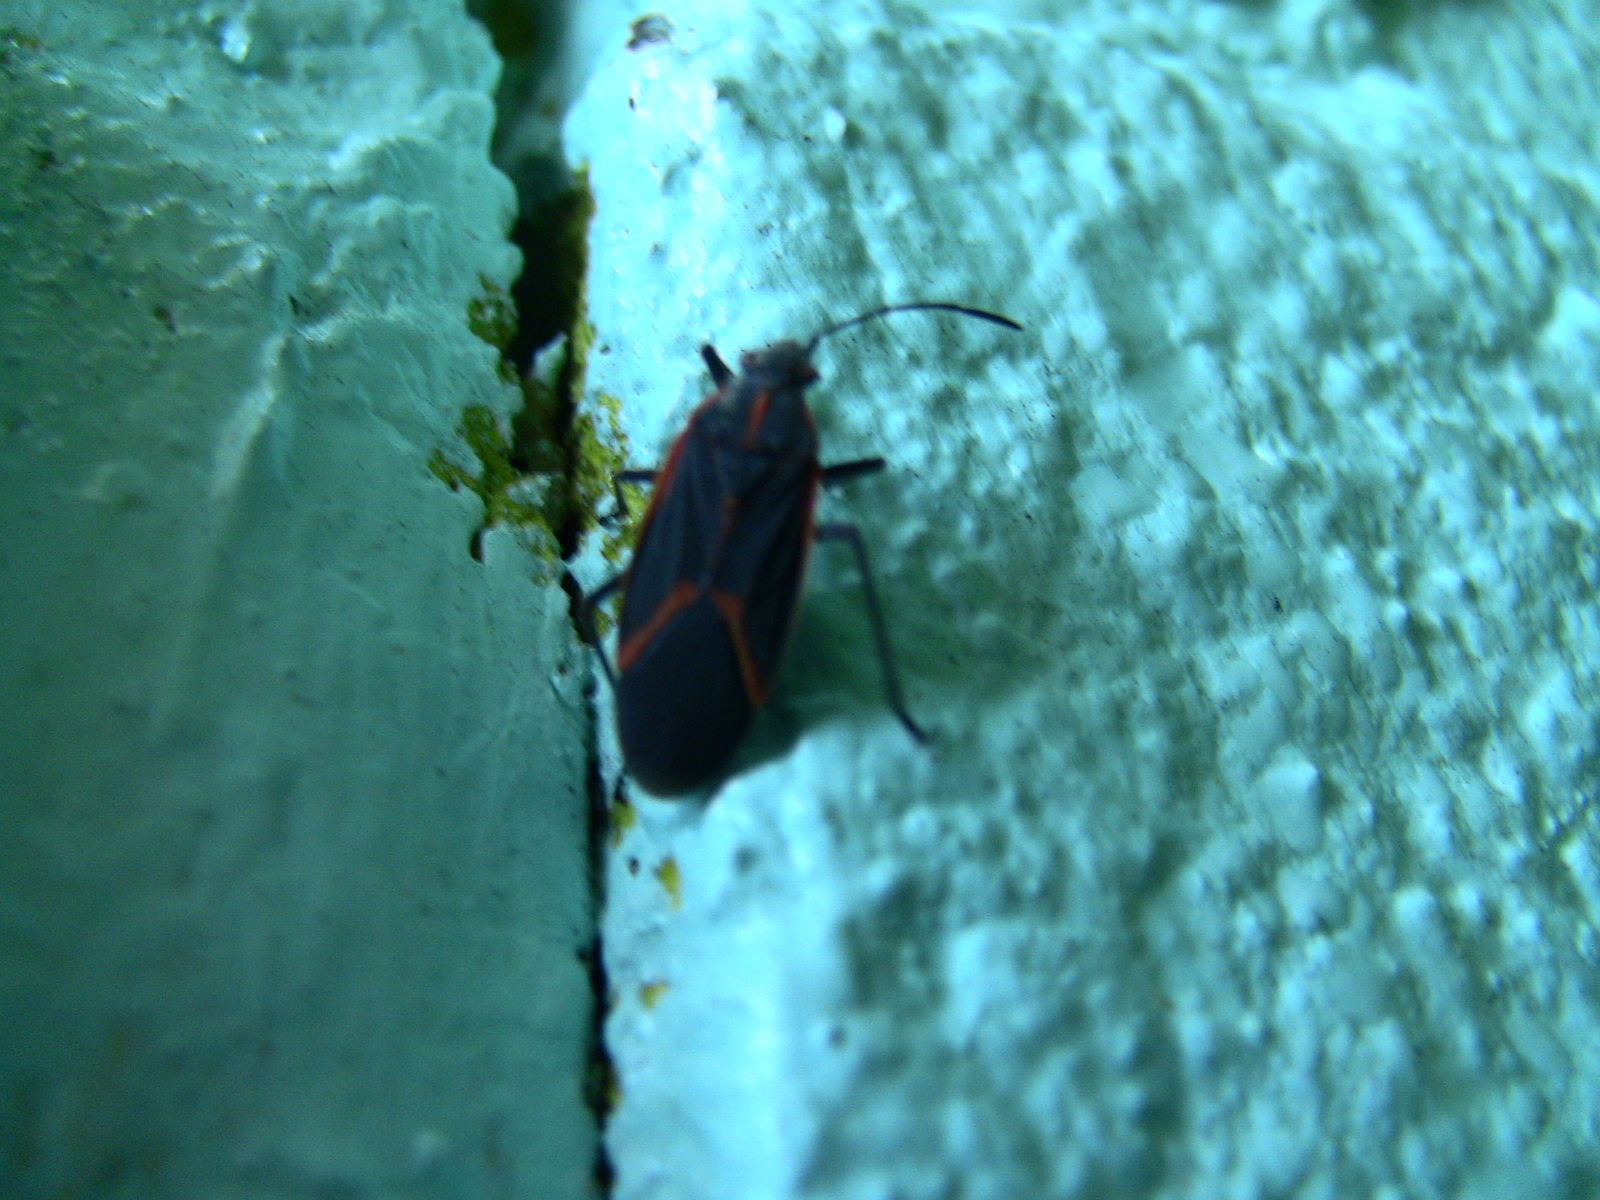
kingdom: Animalia
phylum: Arthropoda
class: Insecta
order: Hemiptera
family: Rhopalidae
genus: Boisea
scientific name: Boisea trivittata
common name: Boxelder bug
